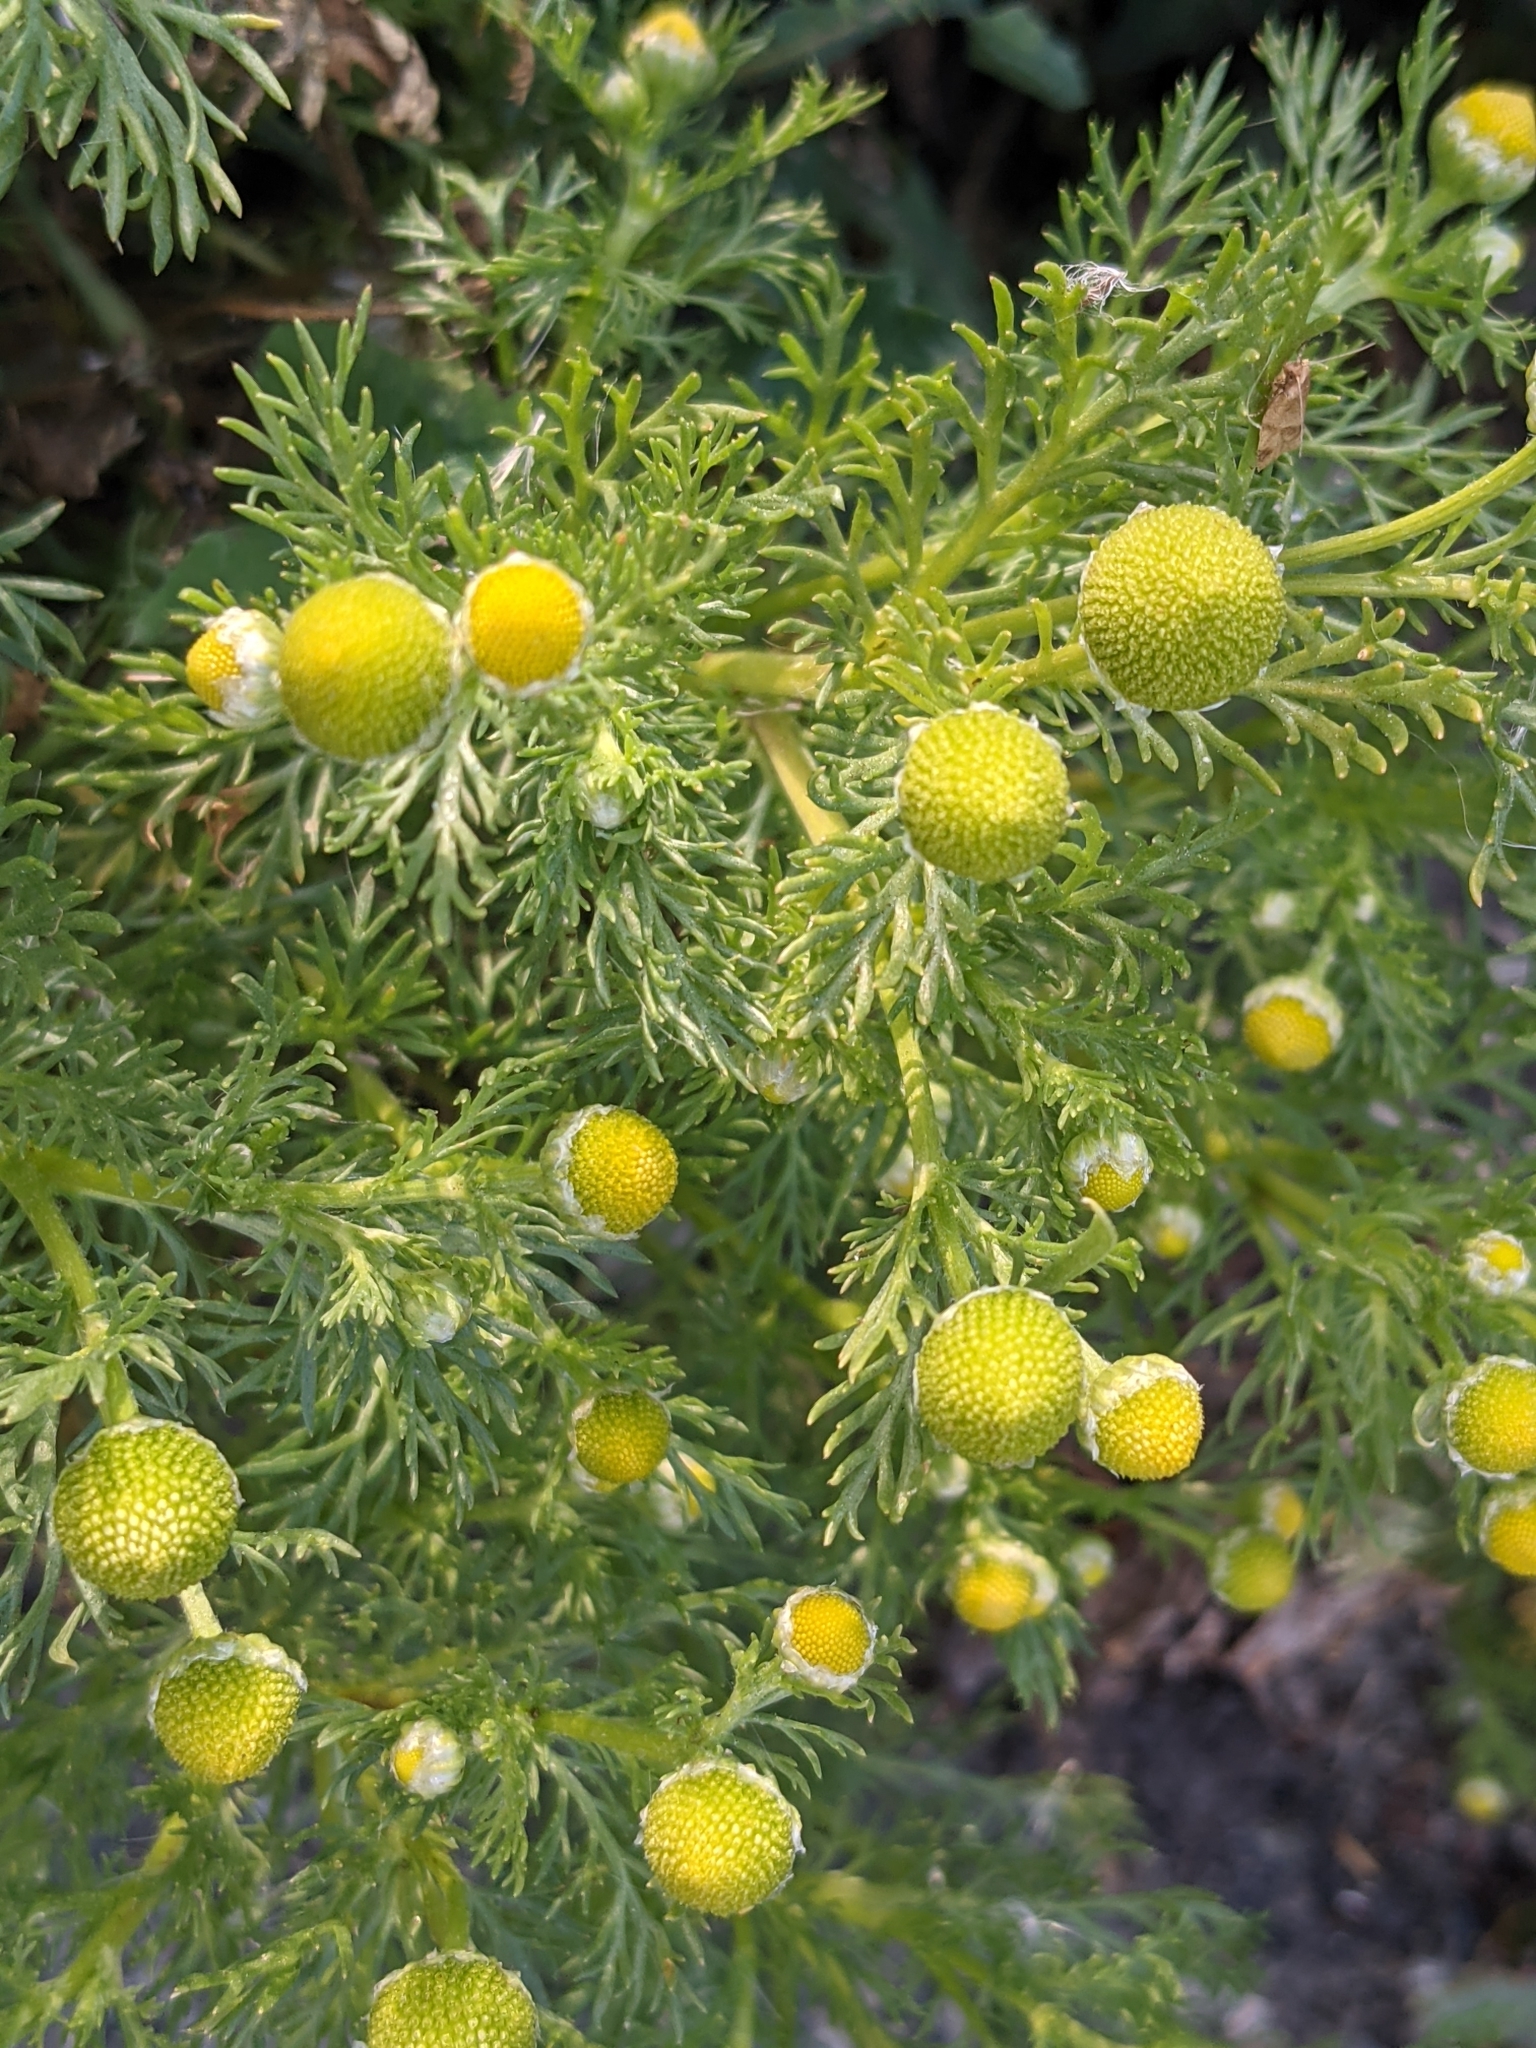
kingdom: Plantae
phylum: Tracheophyta
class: Magnoliopsida
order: Asterales
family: Asteraceae
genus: Matricaria
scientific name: Matricaria discoidea
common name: Disc mayweed
